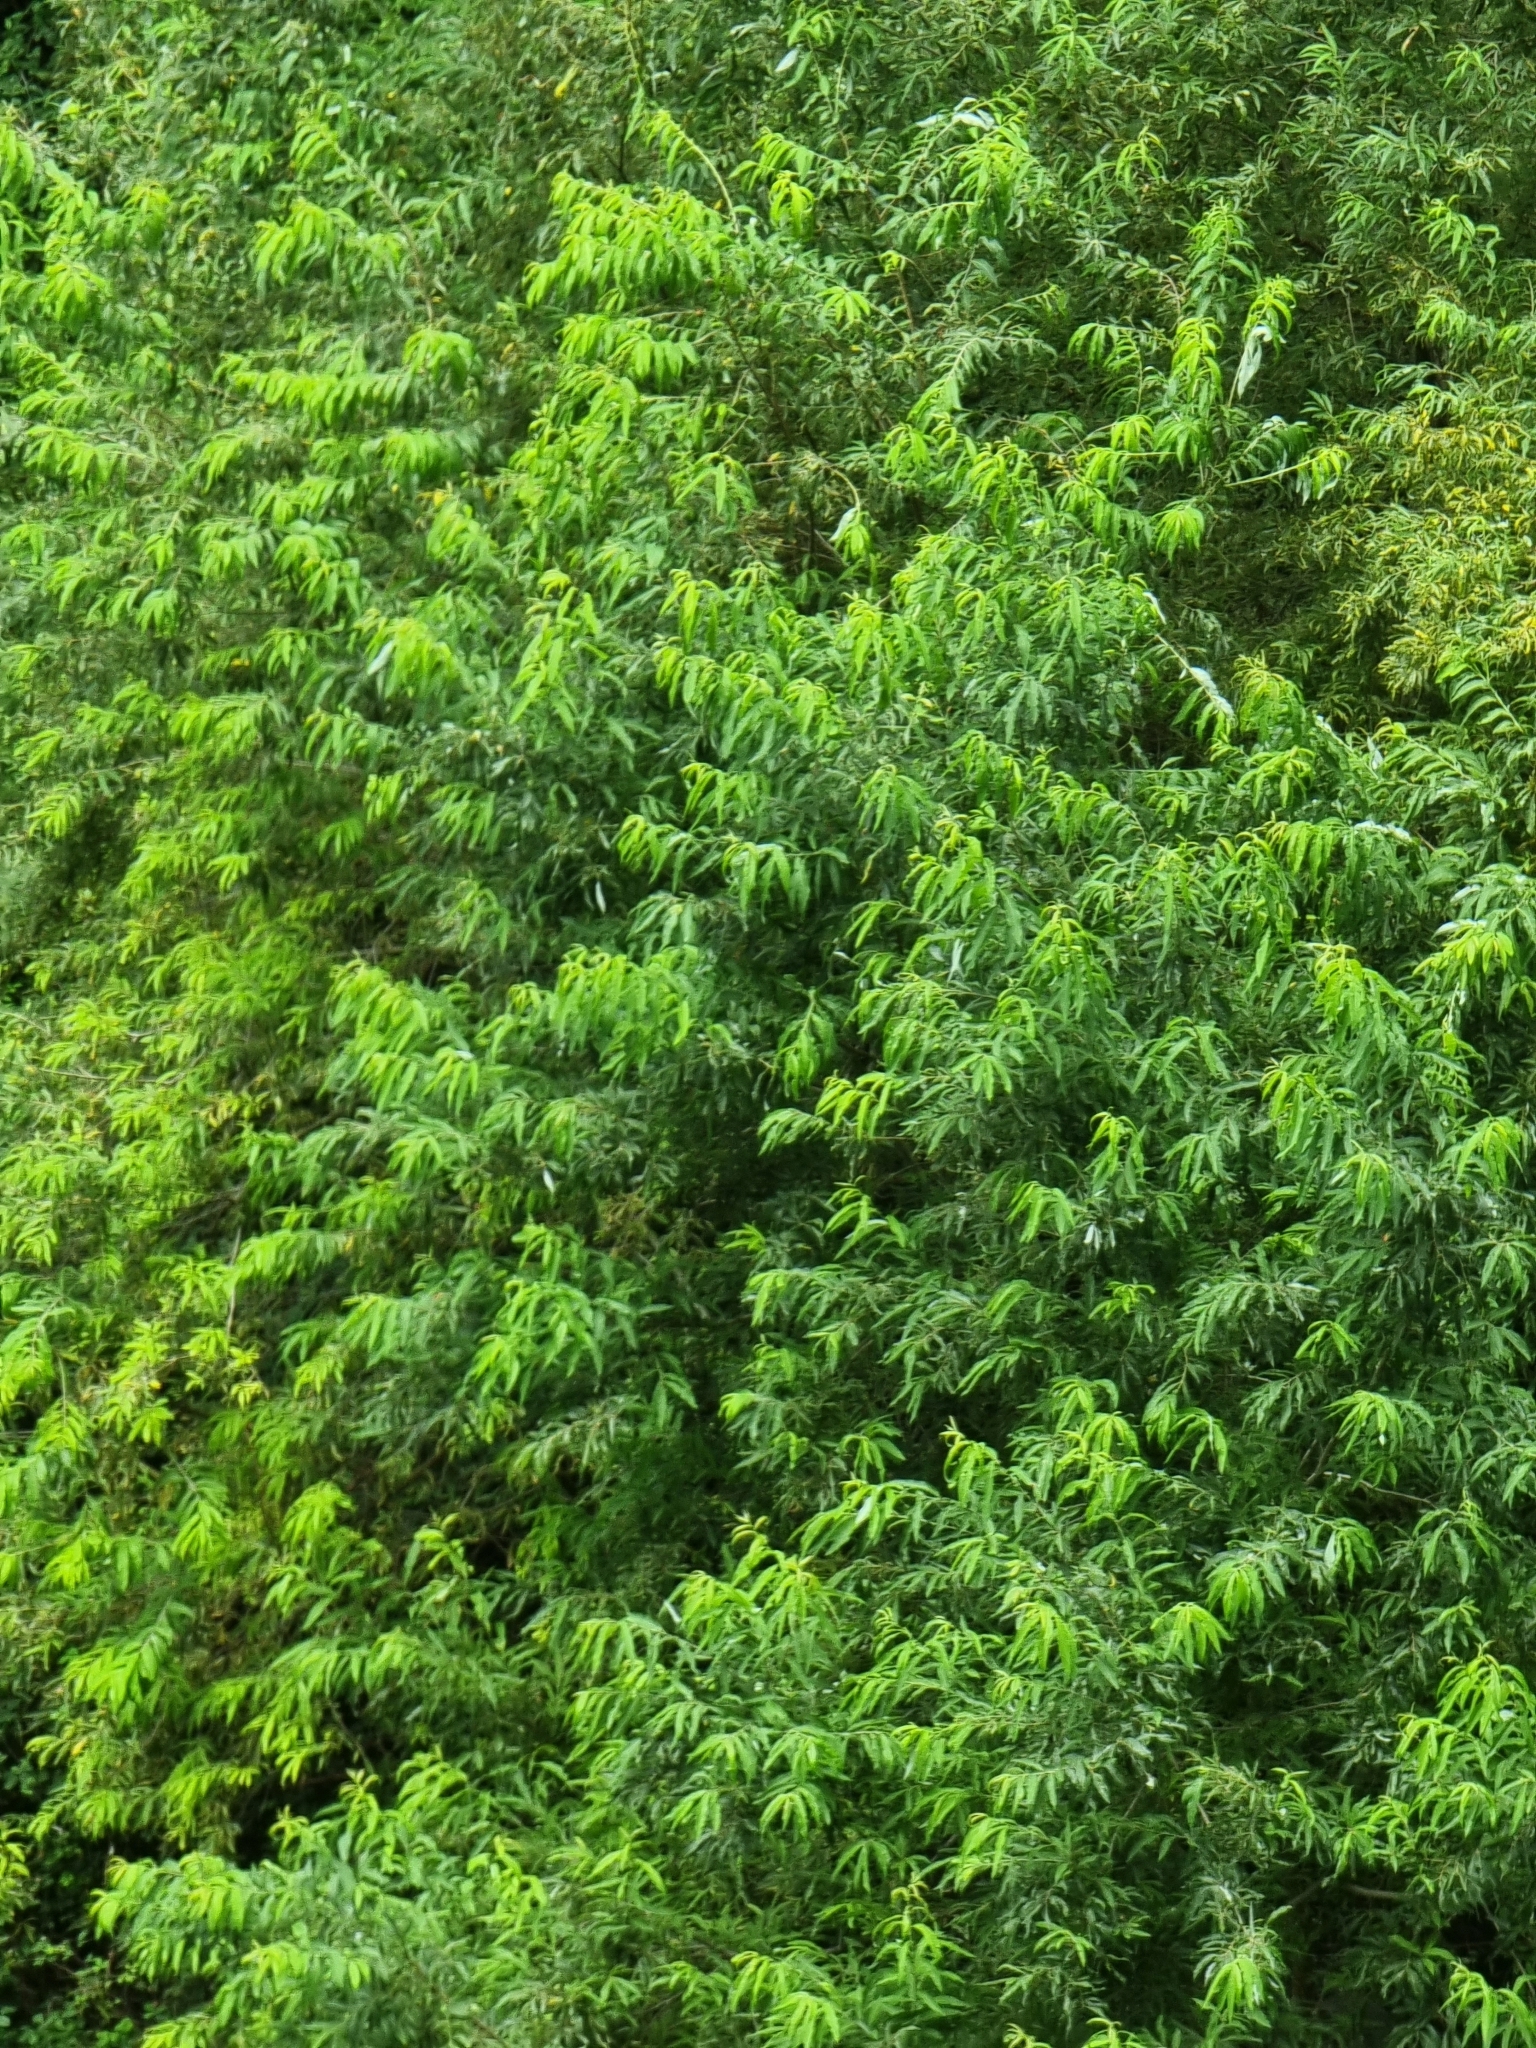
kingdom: Plantae
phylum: Tracheophyta
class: Magnoliopsida
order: Malpighiales
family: Salicaceae
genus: Salix
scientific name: Salix canariensis
